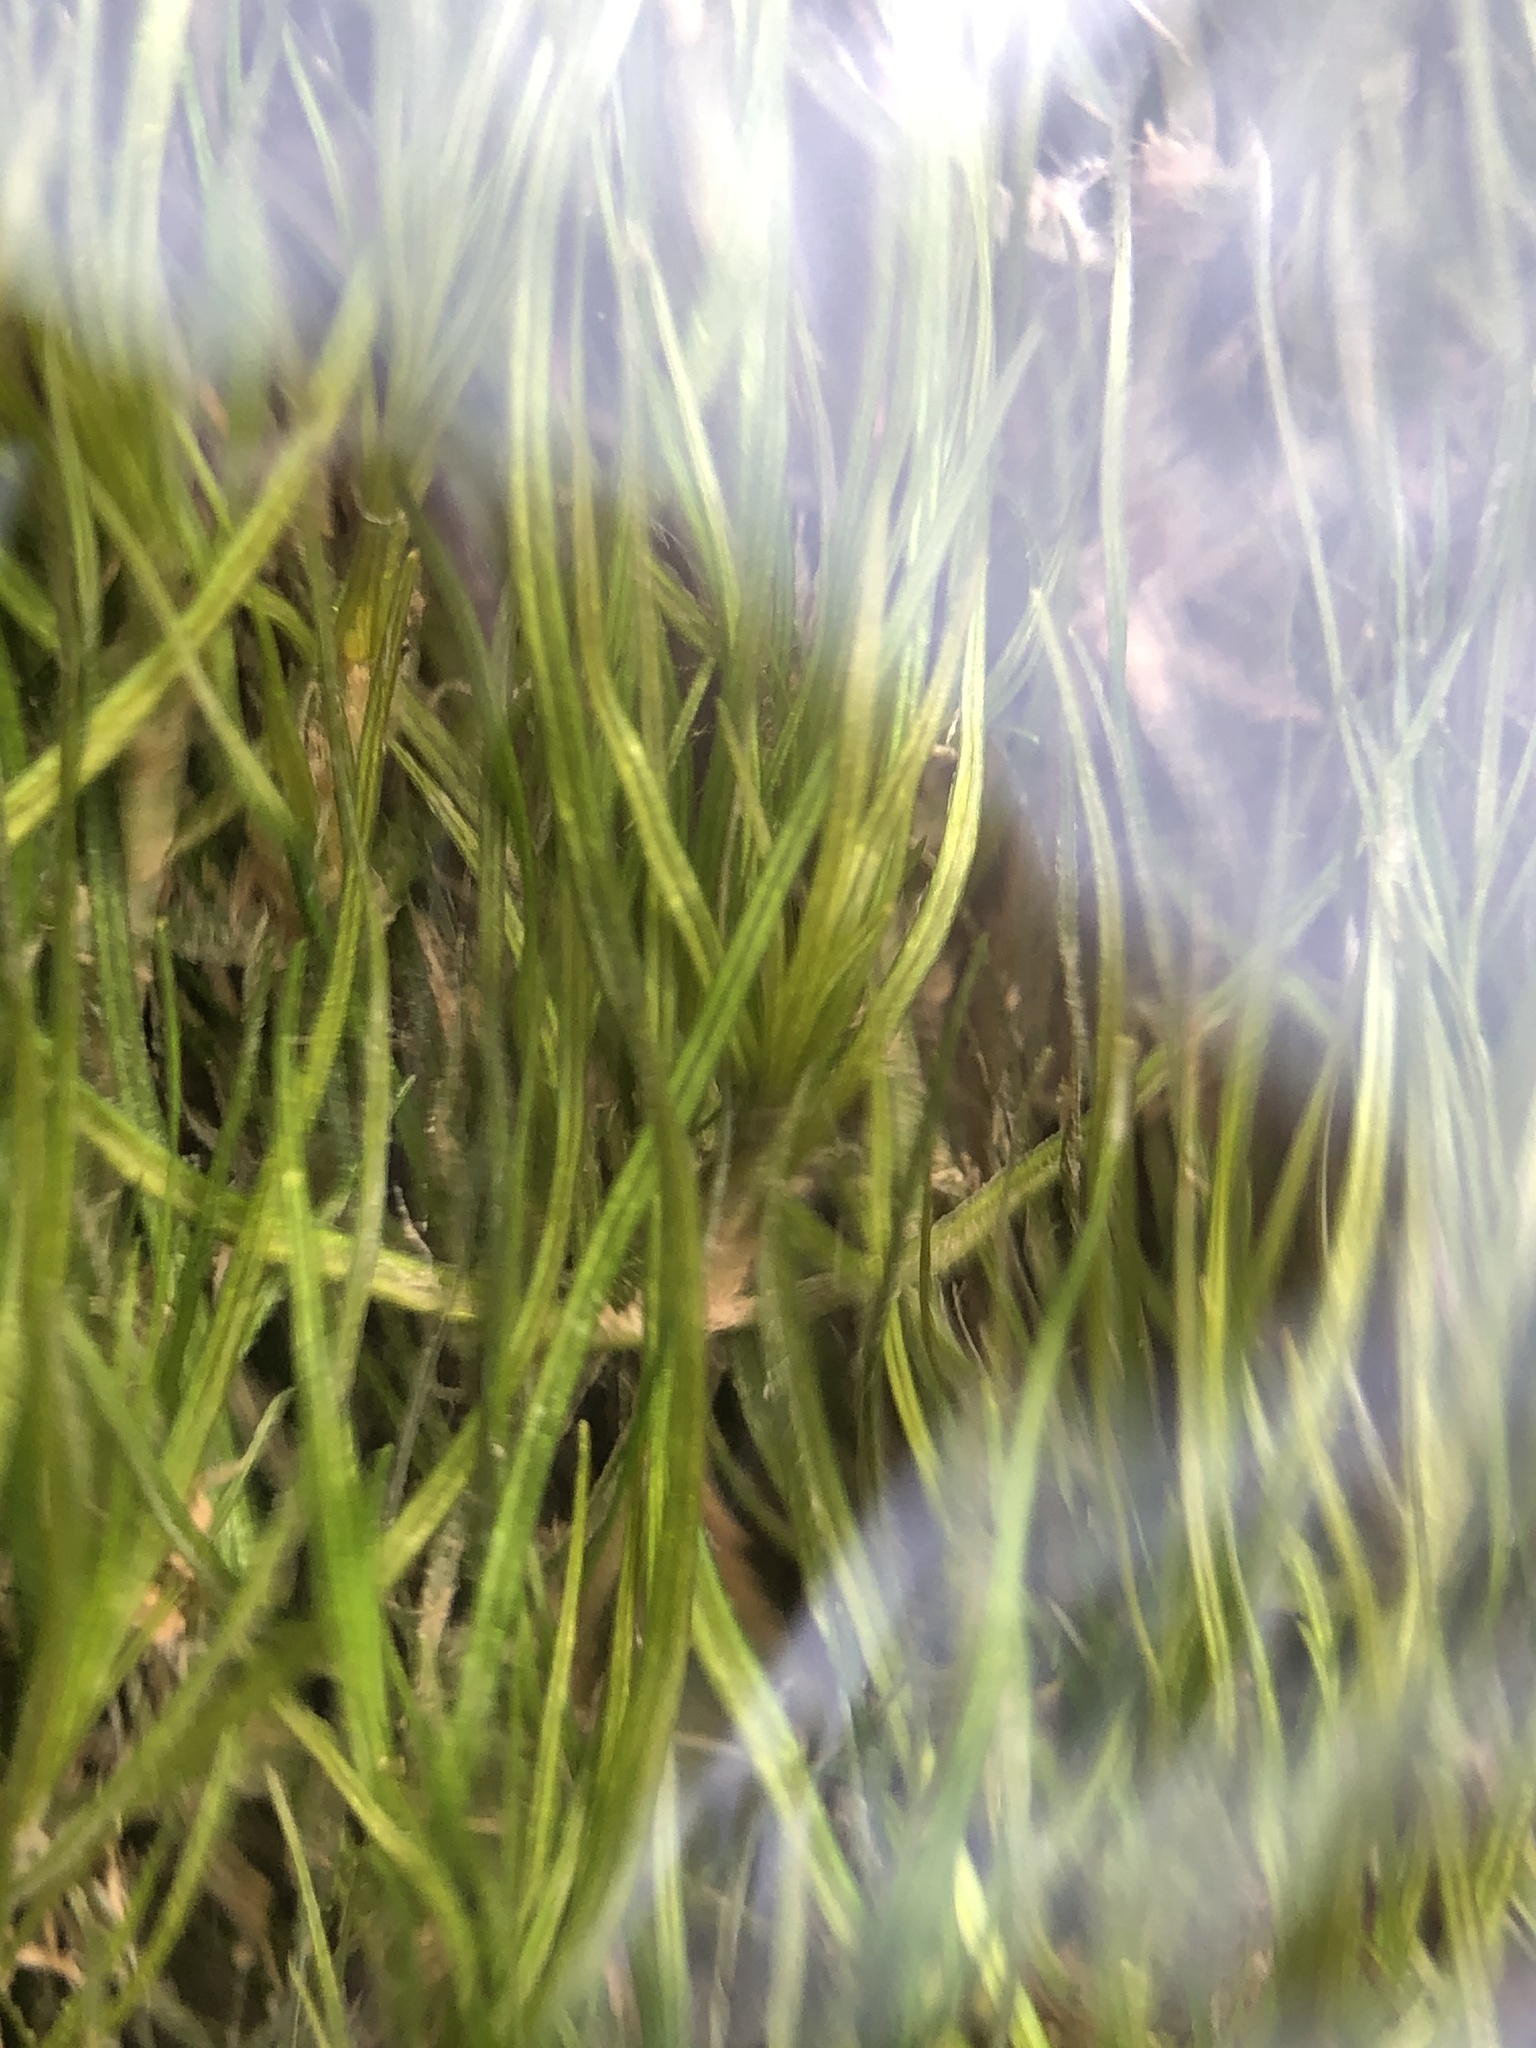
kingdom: Plantae
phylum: Tracheophyta
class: Liliopsida
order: Alismatales
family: Potamogetonaceae
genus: Stuckenia
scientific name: Stuckenia pectinata
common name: Sago pondweed
